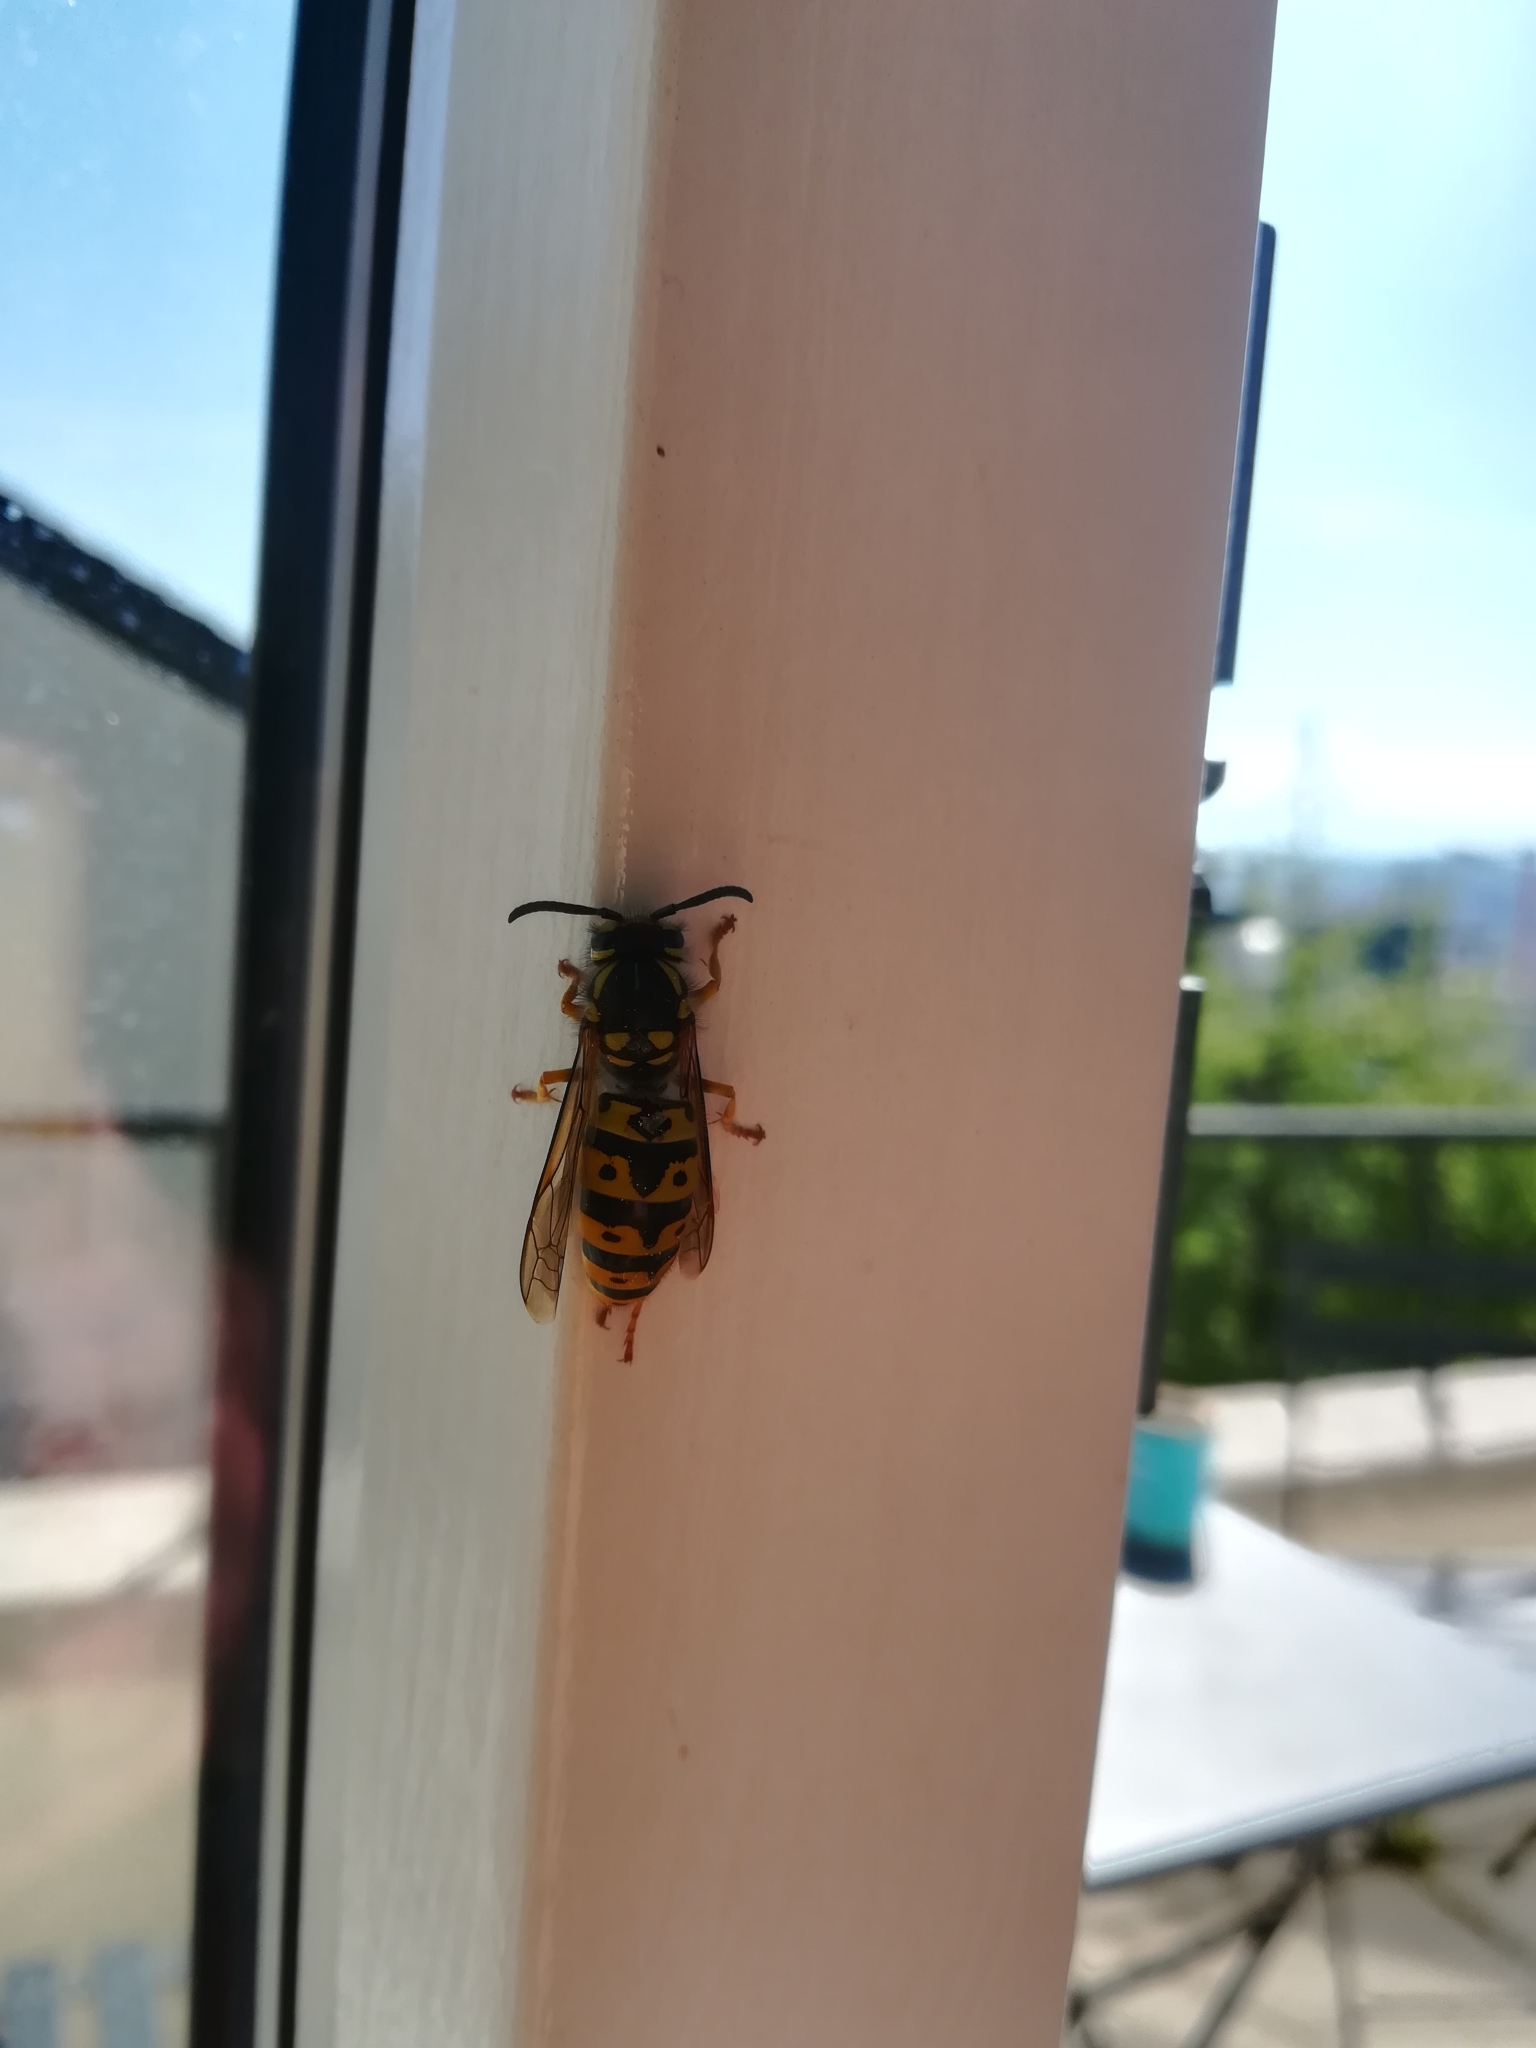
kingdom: Animalia
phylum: Arthropoda
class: Insecta
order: Hymenoptera
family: Vespidae
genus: Vespula
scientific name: Vespula germanica
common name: German wasp
